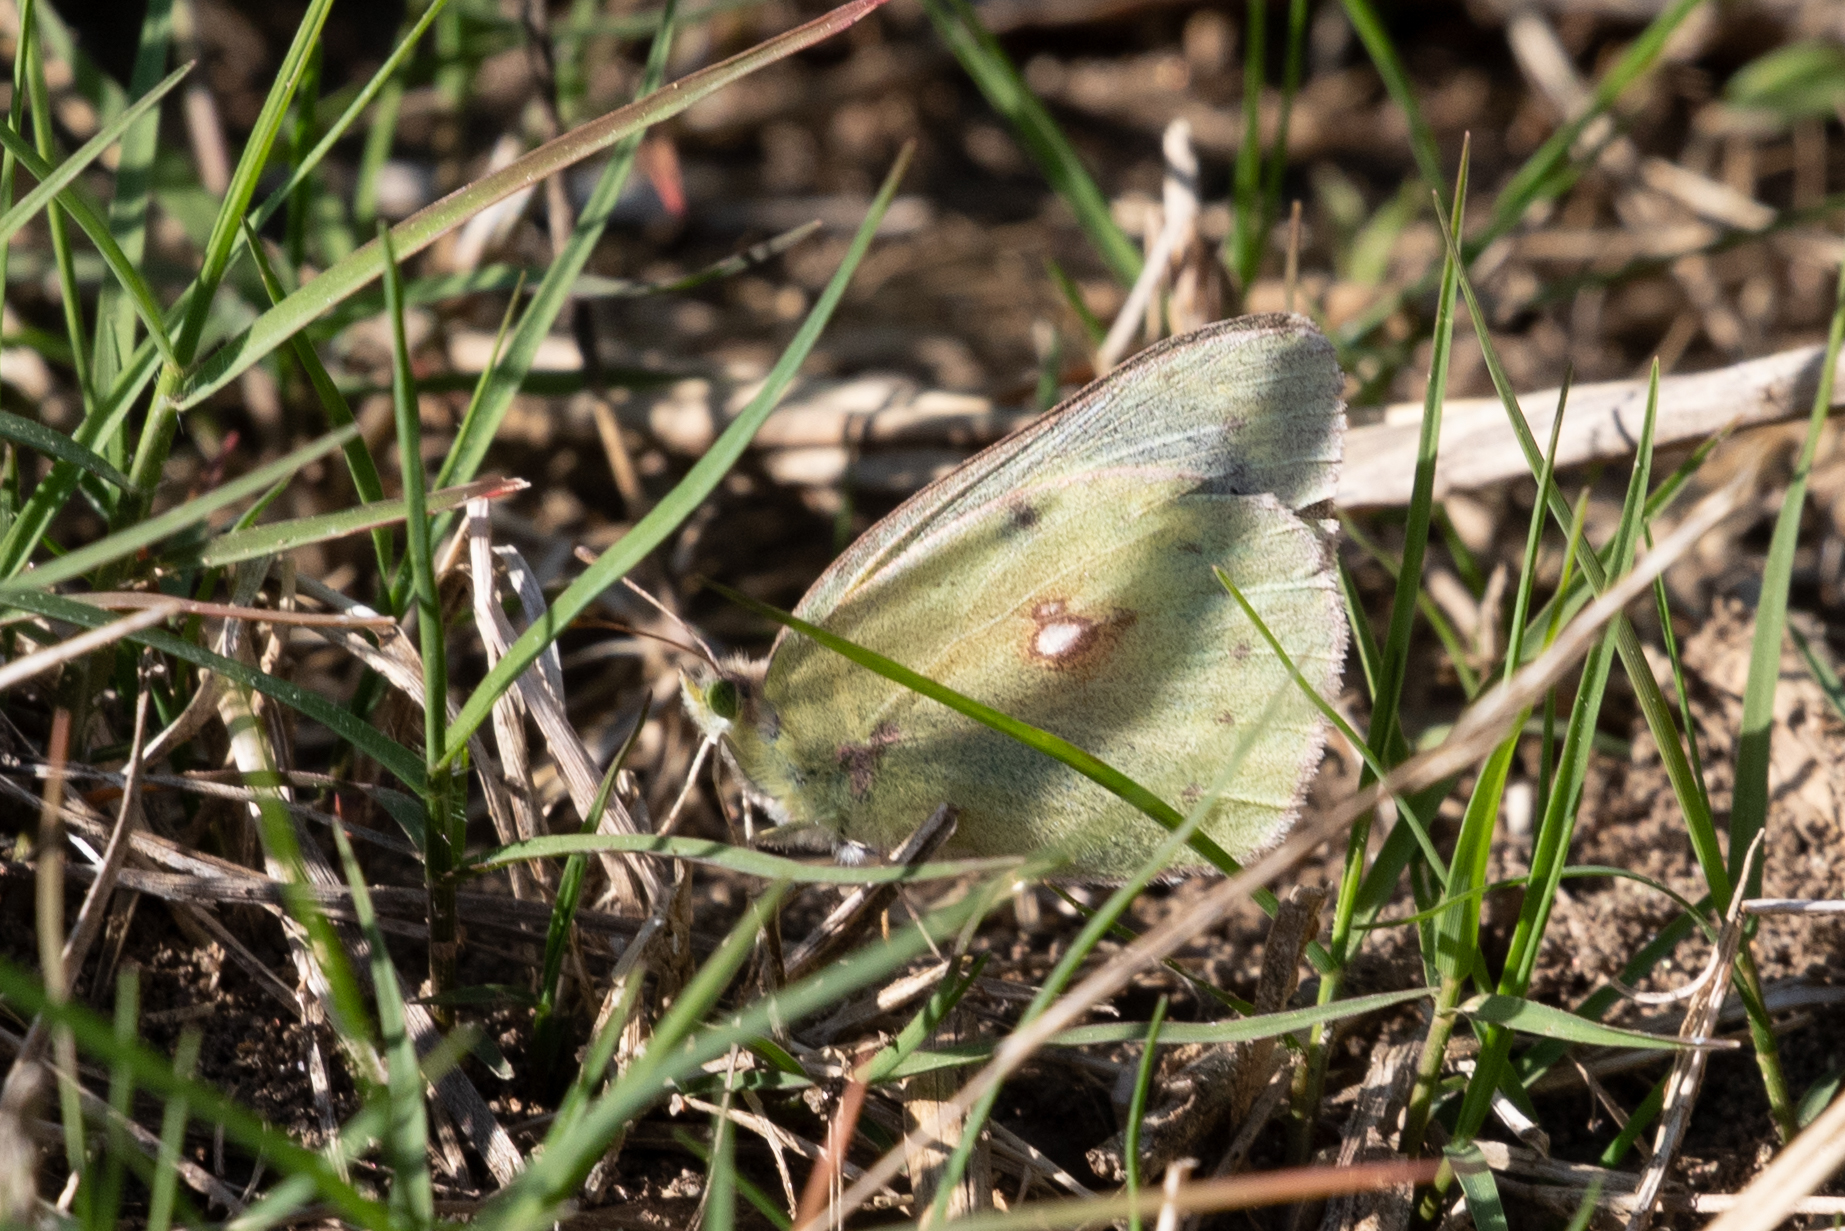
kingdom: Animalia
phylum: Arthropoda
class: Insecta
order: Lepidoptera
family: Pieridae
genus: Colias
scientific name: Colias eurytheme
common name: Alfalfa butterfly
